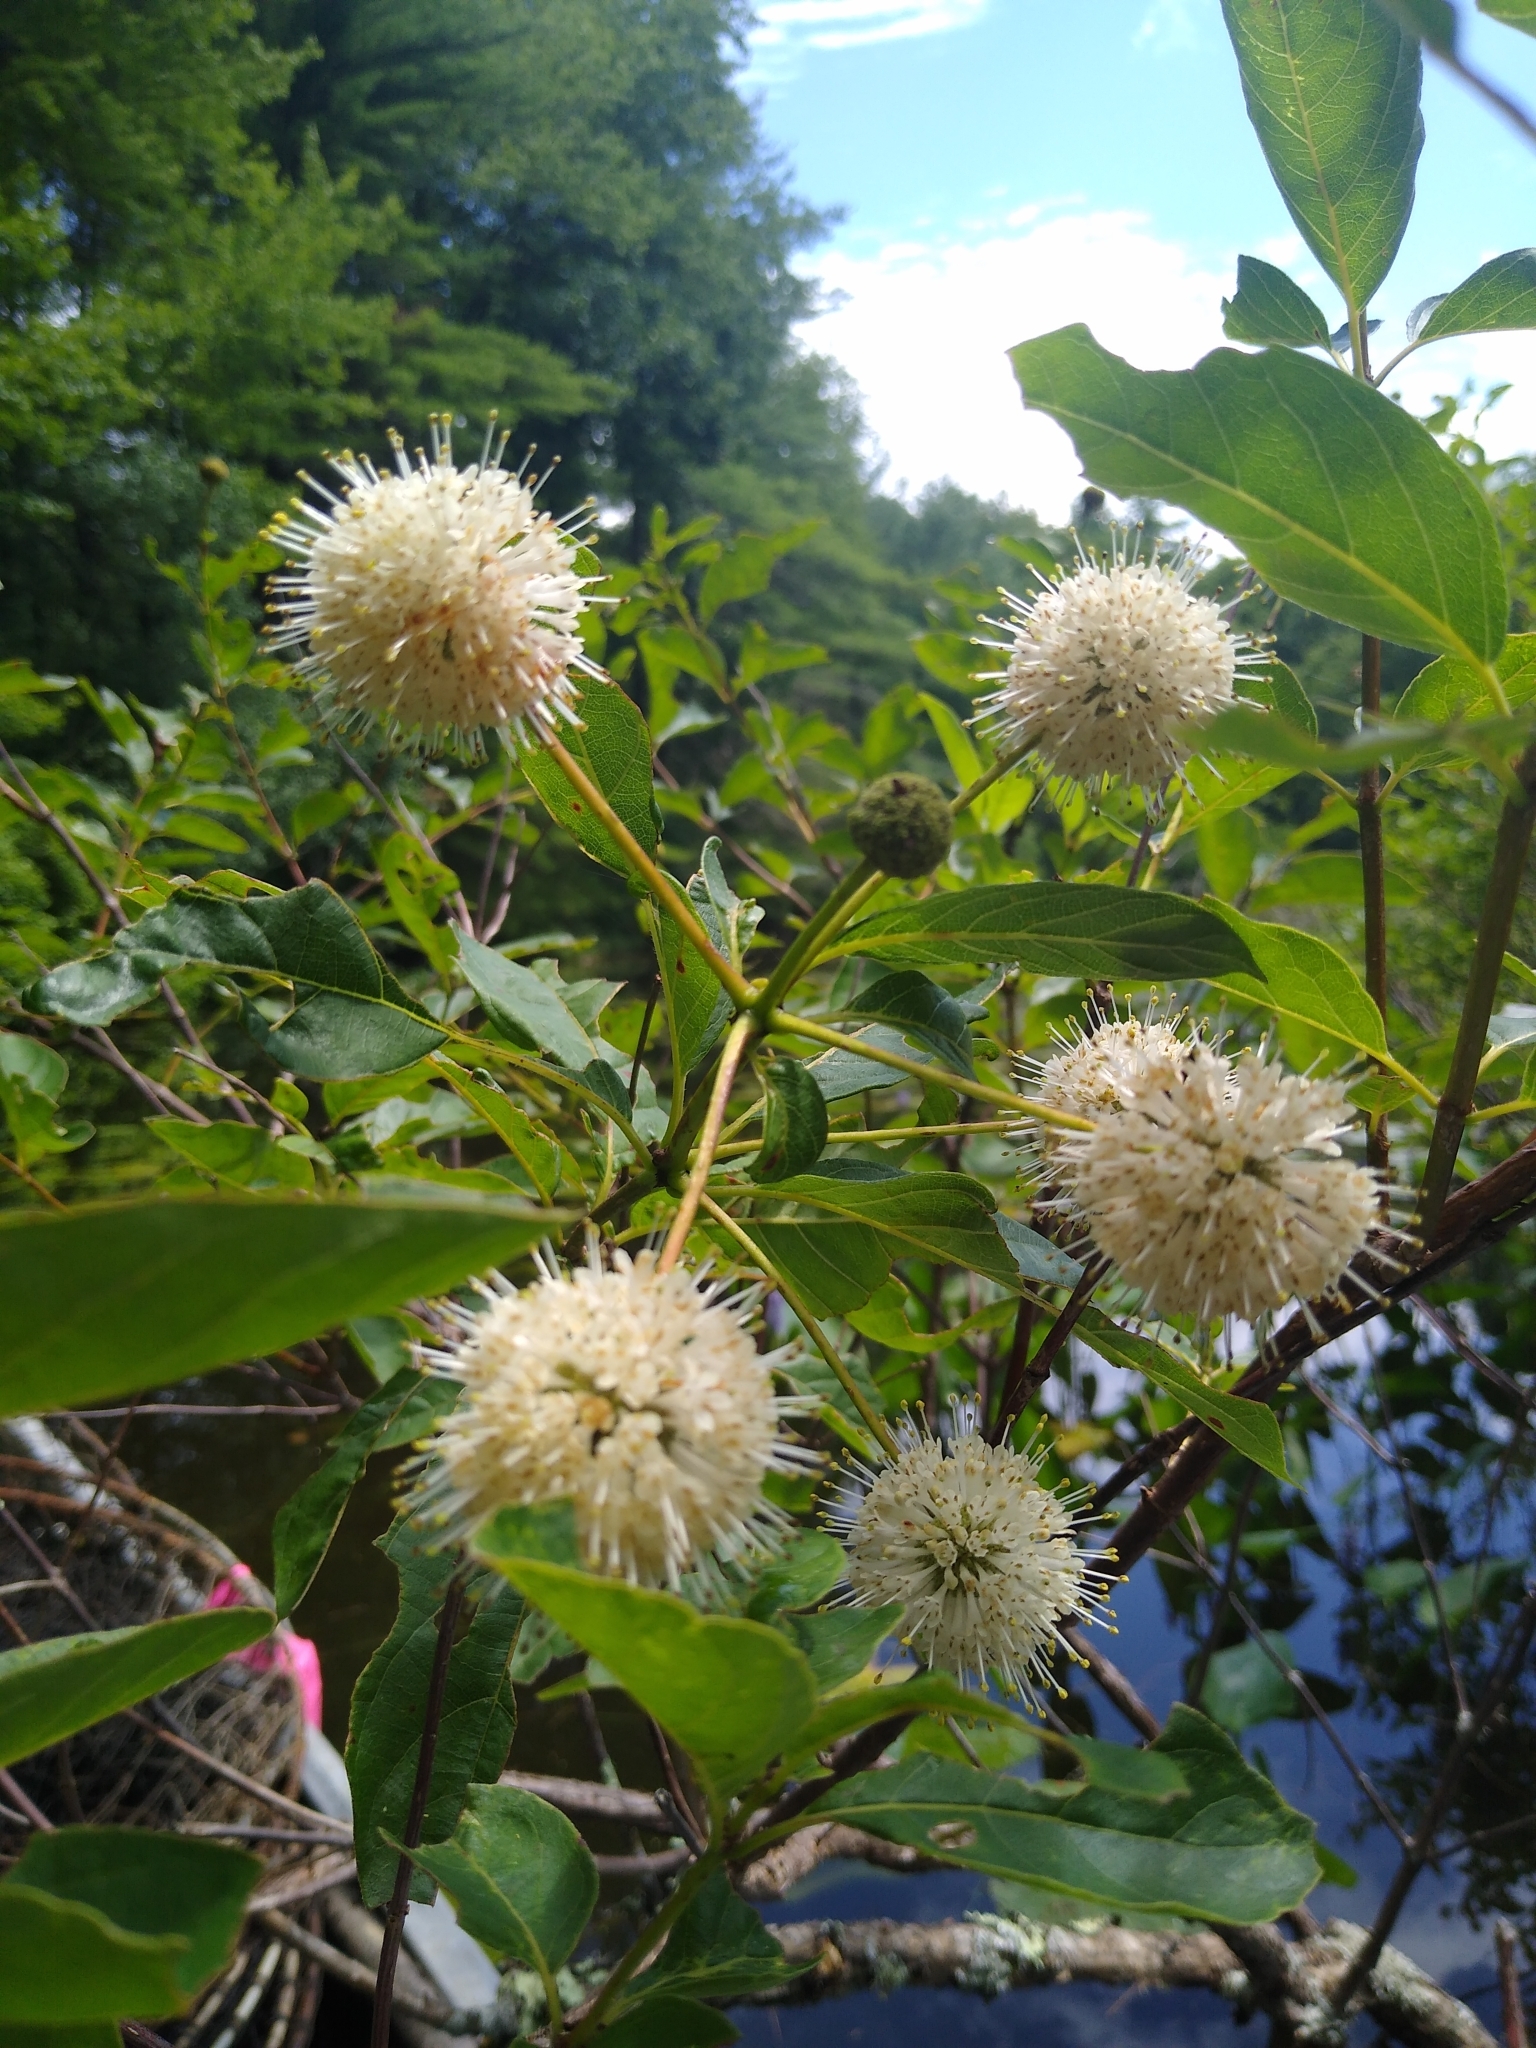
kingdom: Plantae
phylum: Tracheophyta
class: Magnoliopsida
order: Gentianales
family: Rubiaceae
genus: Cephalanthus
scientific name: Cephalanthus occidentalis
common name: Button-willow
